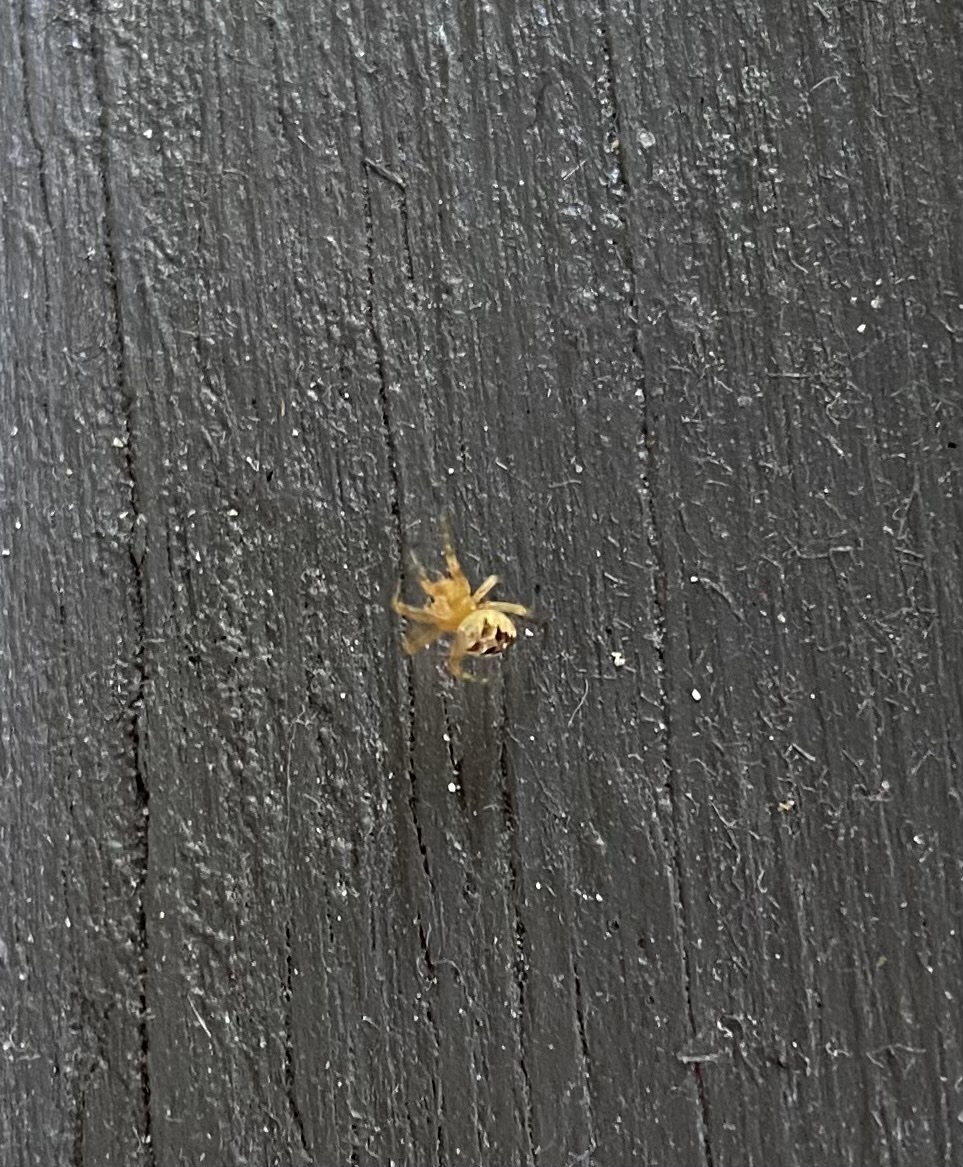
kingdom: Animalia
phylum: Arthropoda
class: Arachnida
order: Araneae
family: Araneidae
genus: Araneus
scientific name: Araneus diadematus
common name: Cross orbweaver
